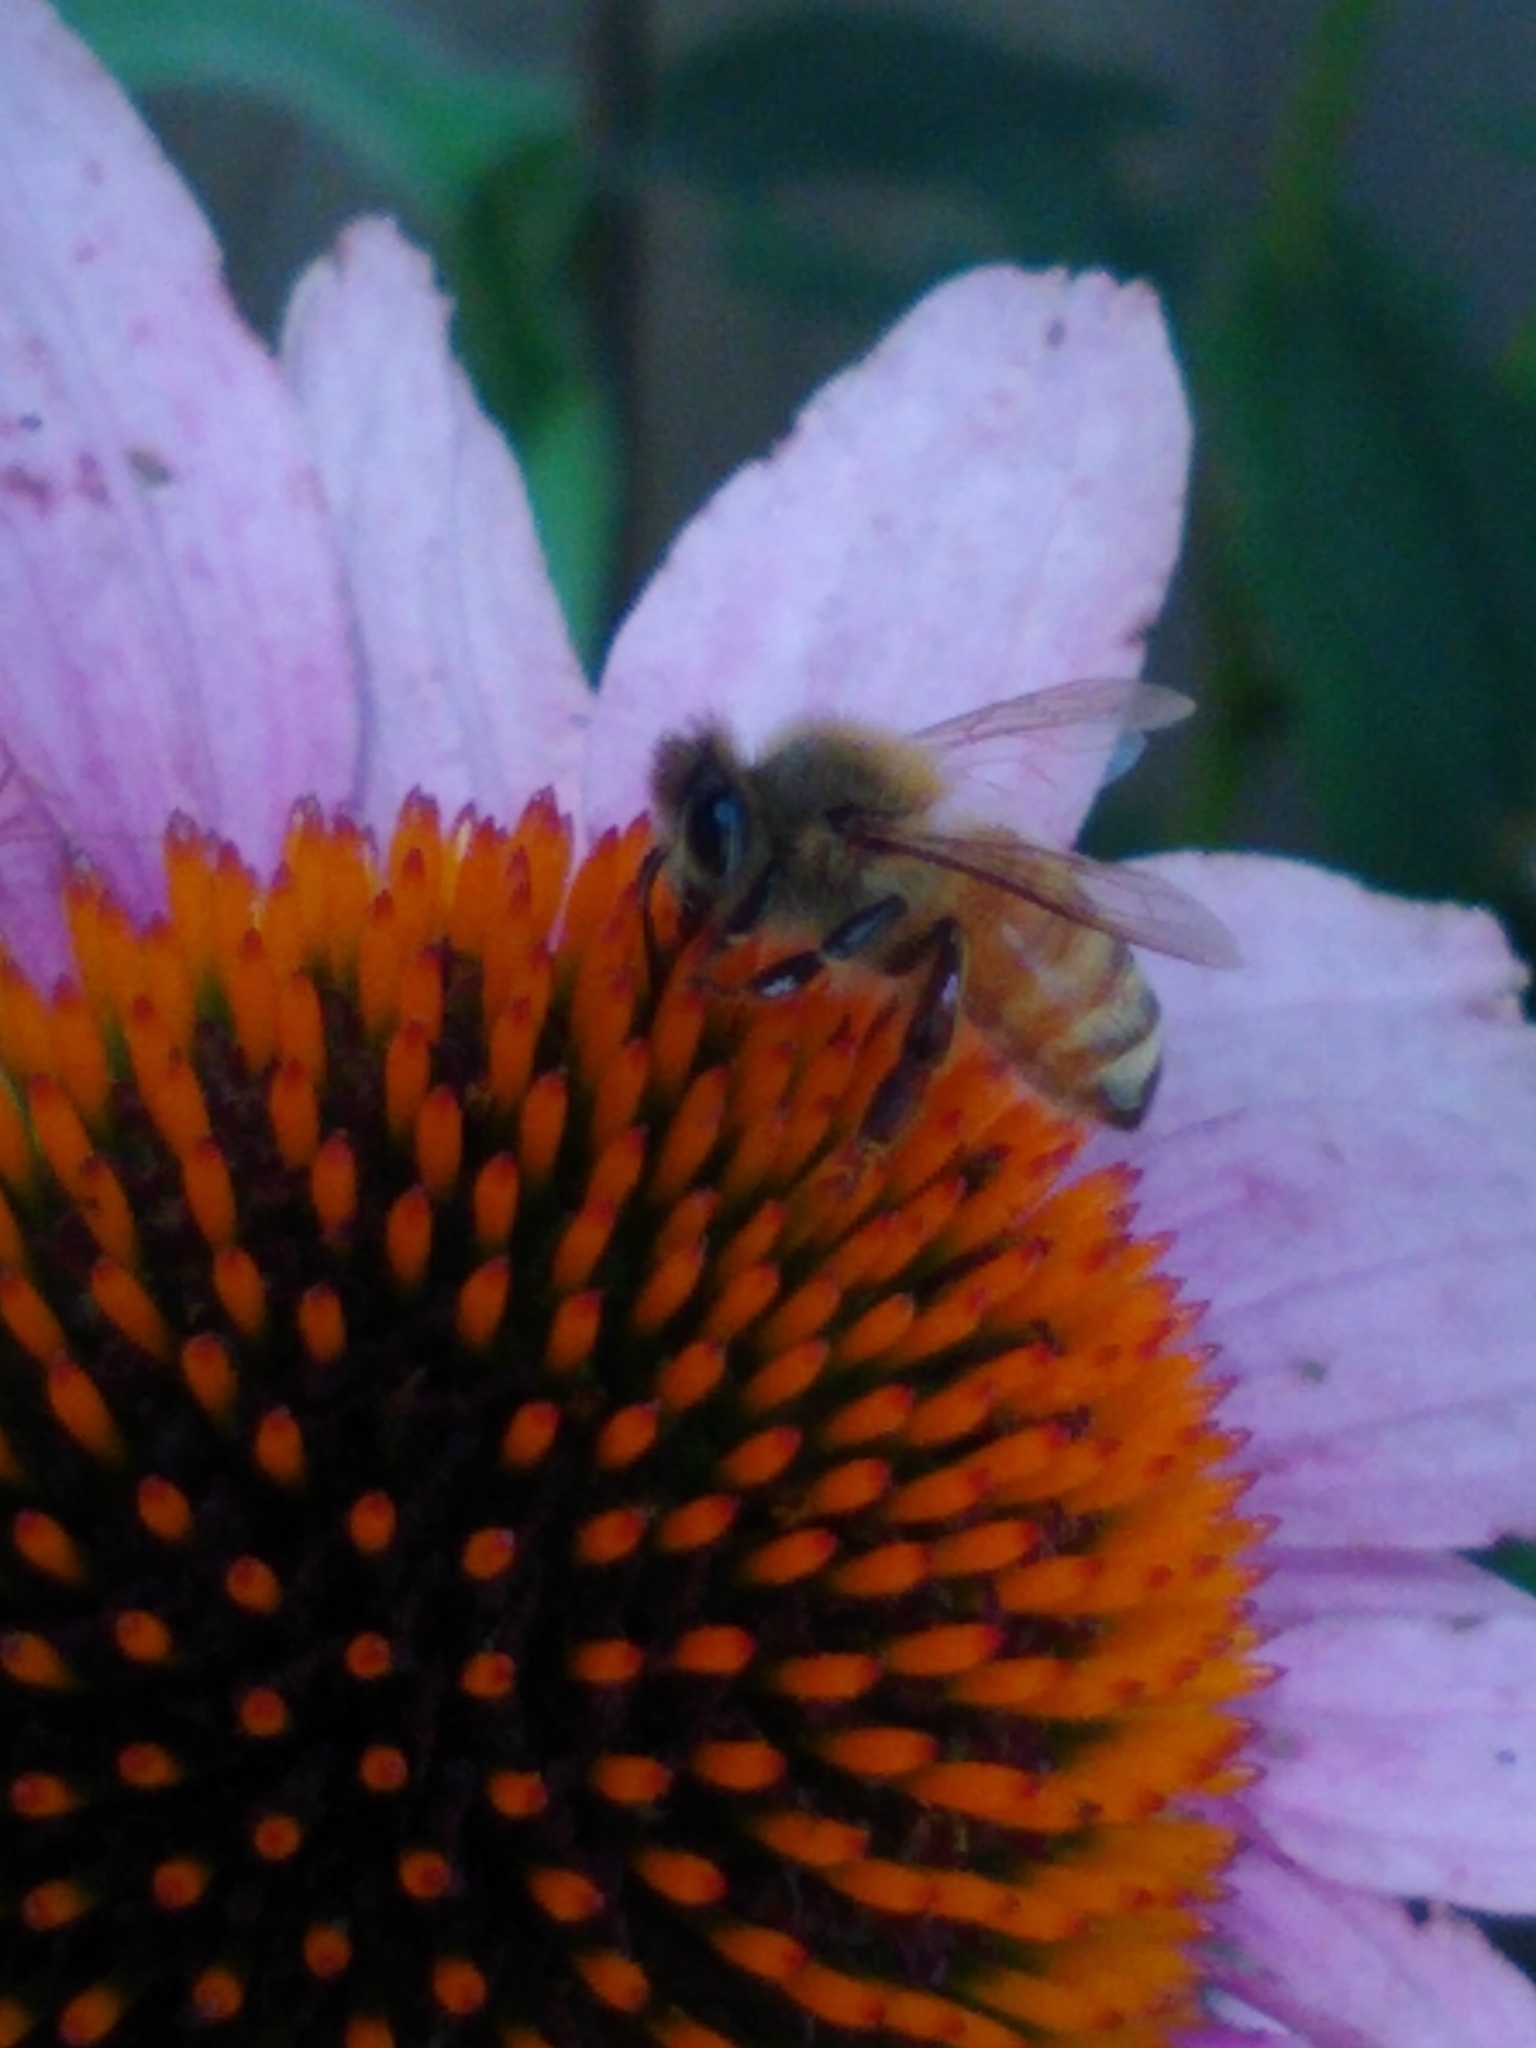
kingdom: Animalia
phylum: Arthropoda
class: Insecta
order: Hymenoptera
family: Apidae
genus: Apis
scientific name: Apis mellifera
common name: Honey bee
